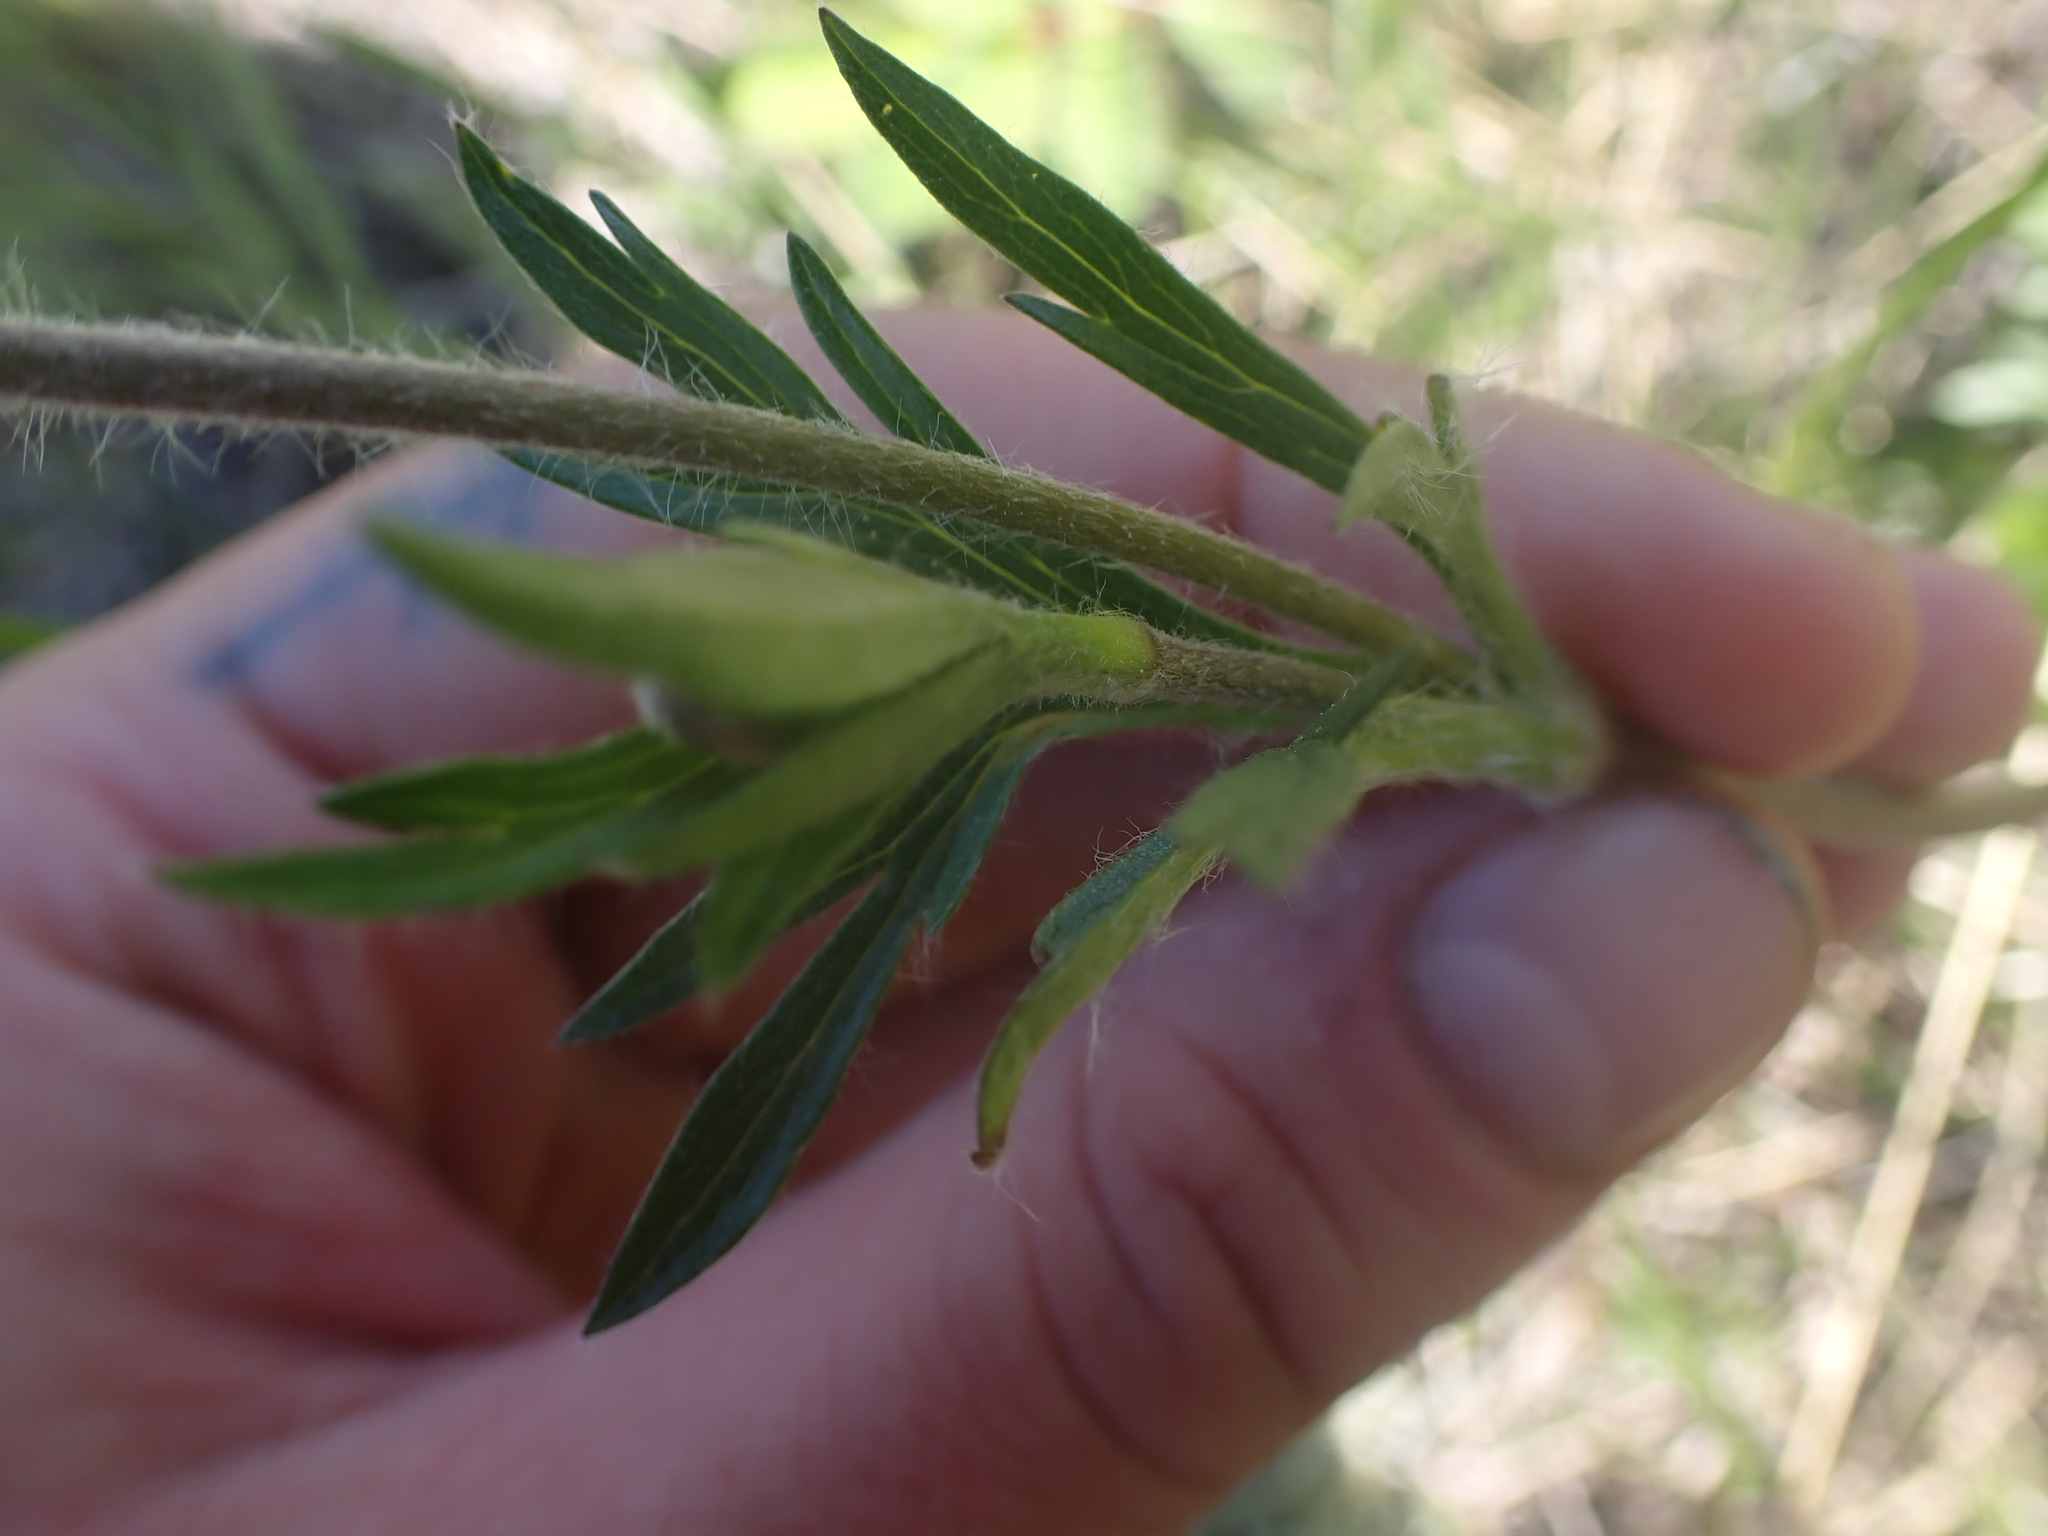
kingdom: Plantae
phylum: Tracheophyta
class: Magnoliopsida
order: Ranunculales
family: Ranunculaceae
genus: Anemone
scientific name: Anemone multifida
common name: Bird's-foot anemone
